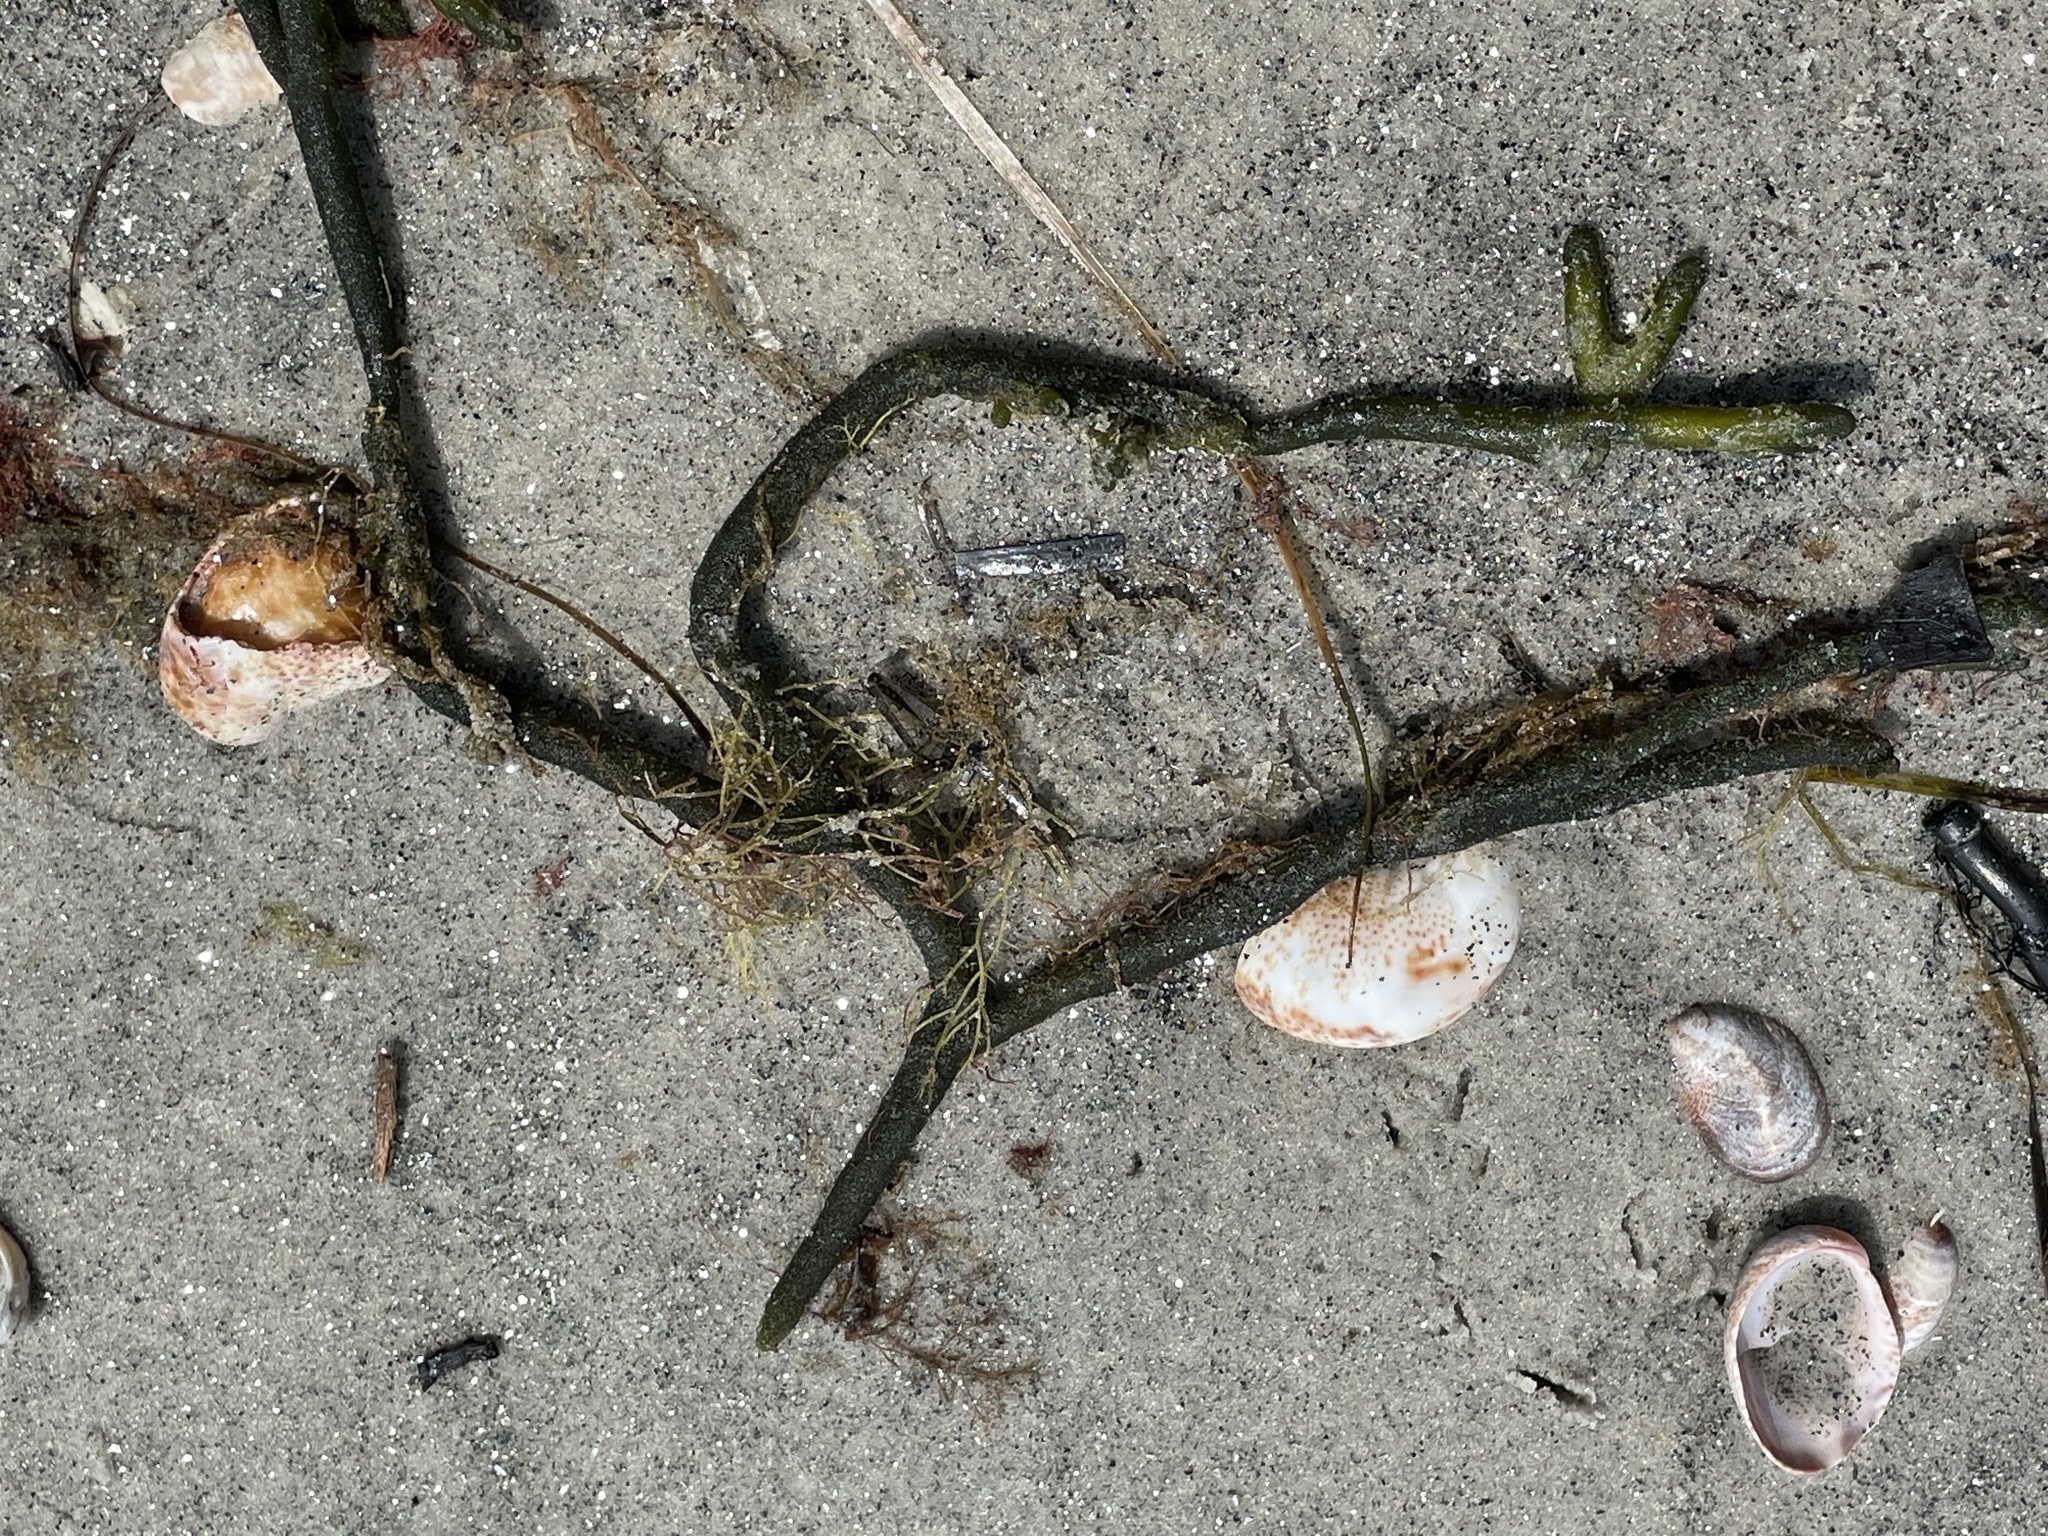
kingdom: Plantae
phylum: Chlorophyta
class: Ulvophyceae
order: Bryopsidales
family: Codiaceae
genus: Codium
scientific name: Codium fragile
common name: Dead man's fingers
